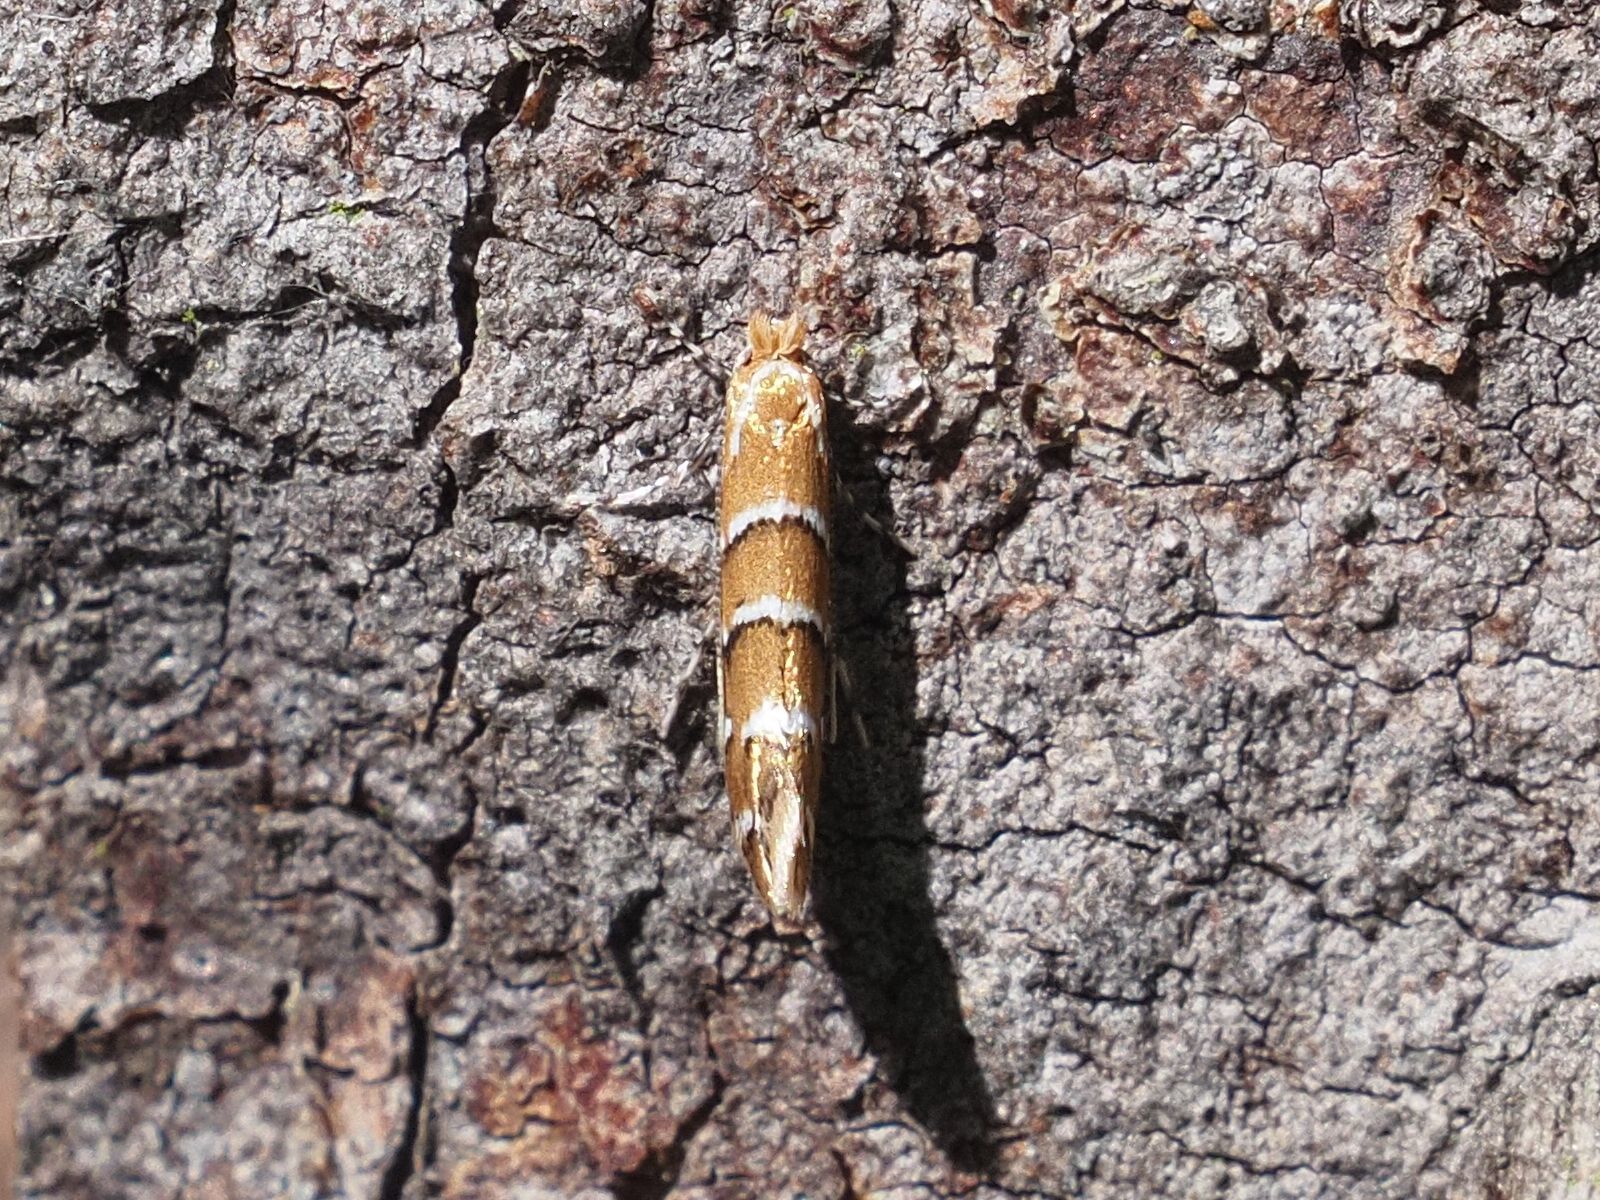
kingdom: Animalia
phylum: Arthropoda
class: Insecta
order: Lepidoptera
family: Gracillariidae
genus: Cameraria
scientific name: Cameraria ohridella
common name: Horse-chestnut leaf-miner
